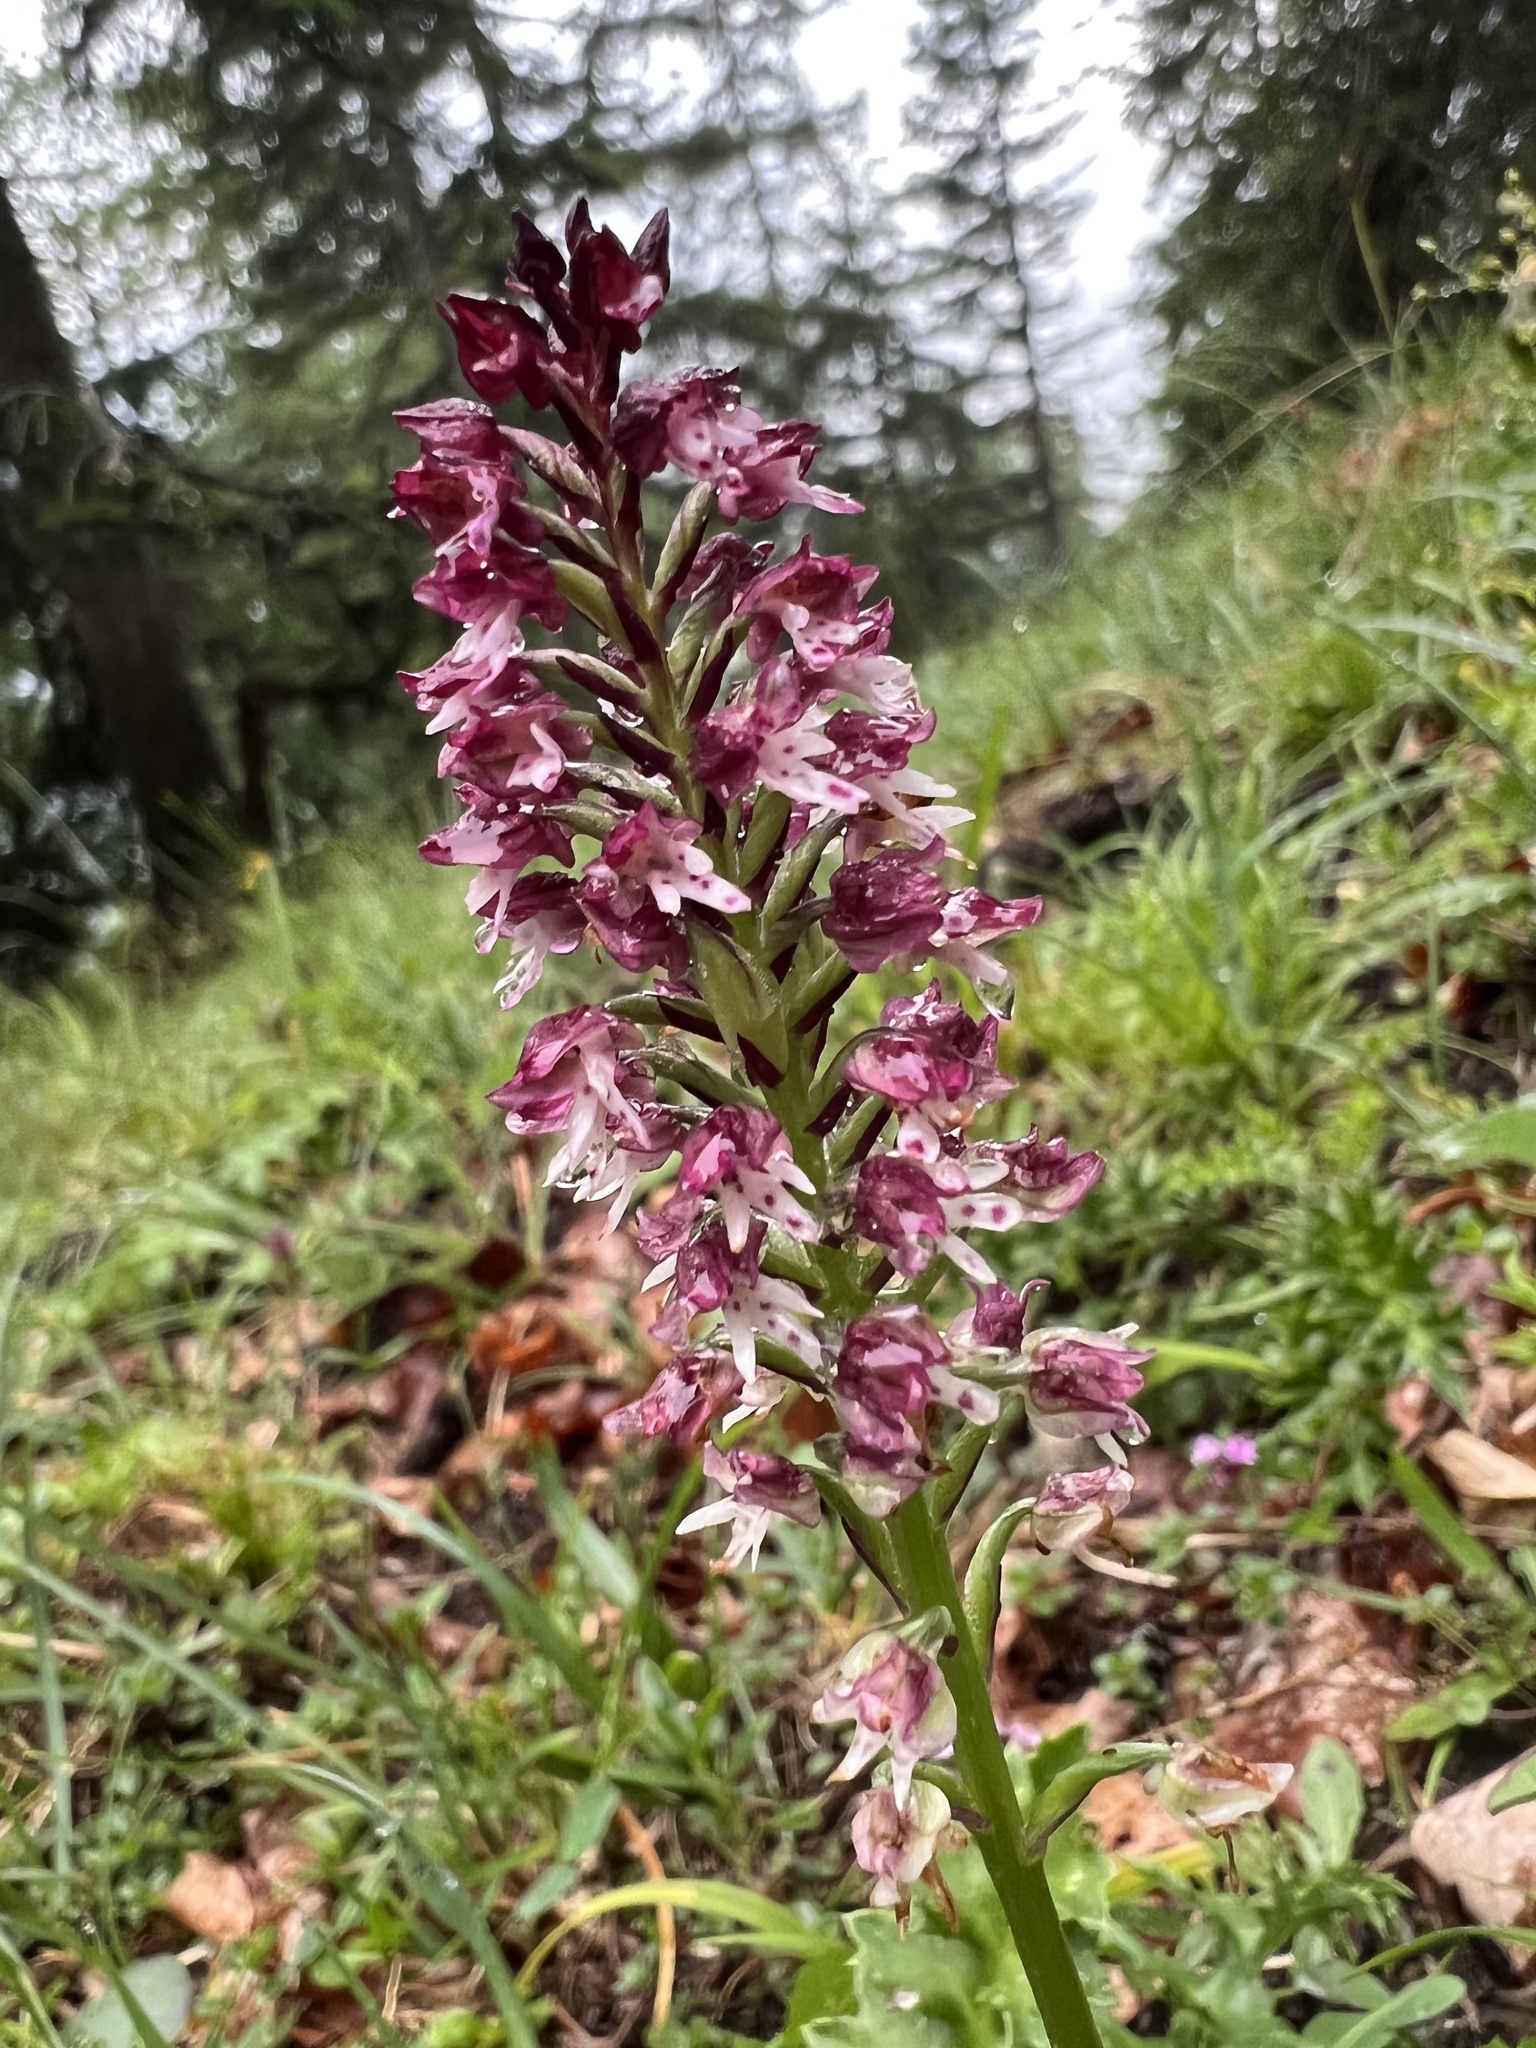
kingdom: Plantae
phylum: Tracheophyta
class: Liliopsida
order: Asparagales
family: Orchidaceae
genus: Neotinea
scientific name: Neotinea ustulata
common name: Burnt orchid
